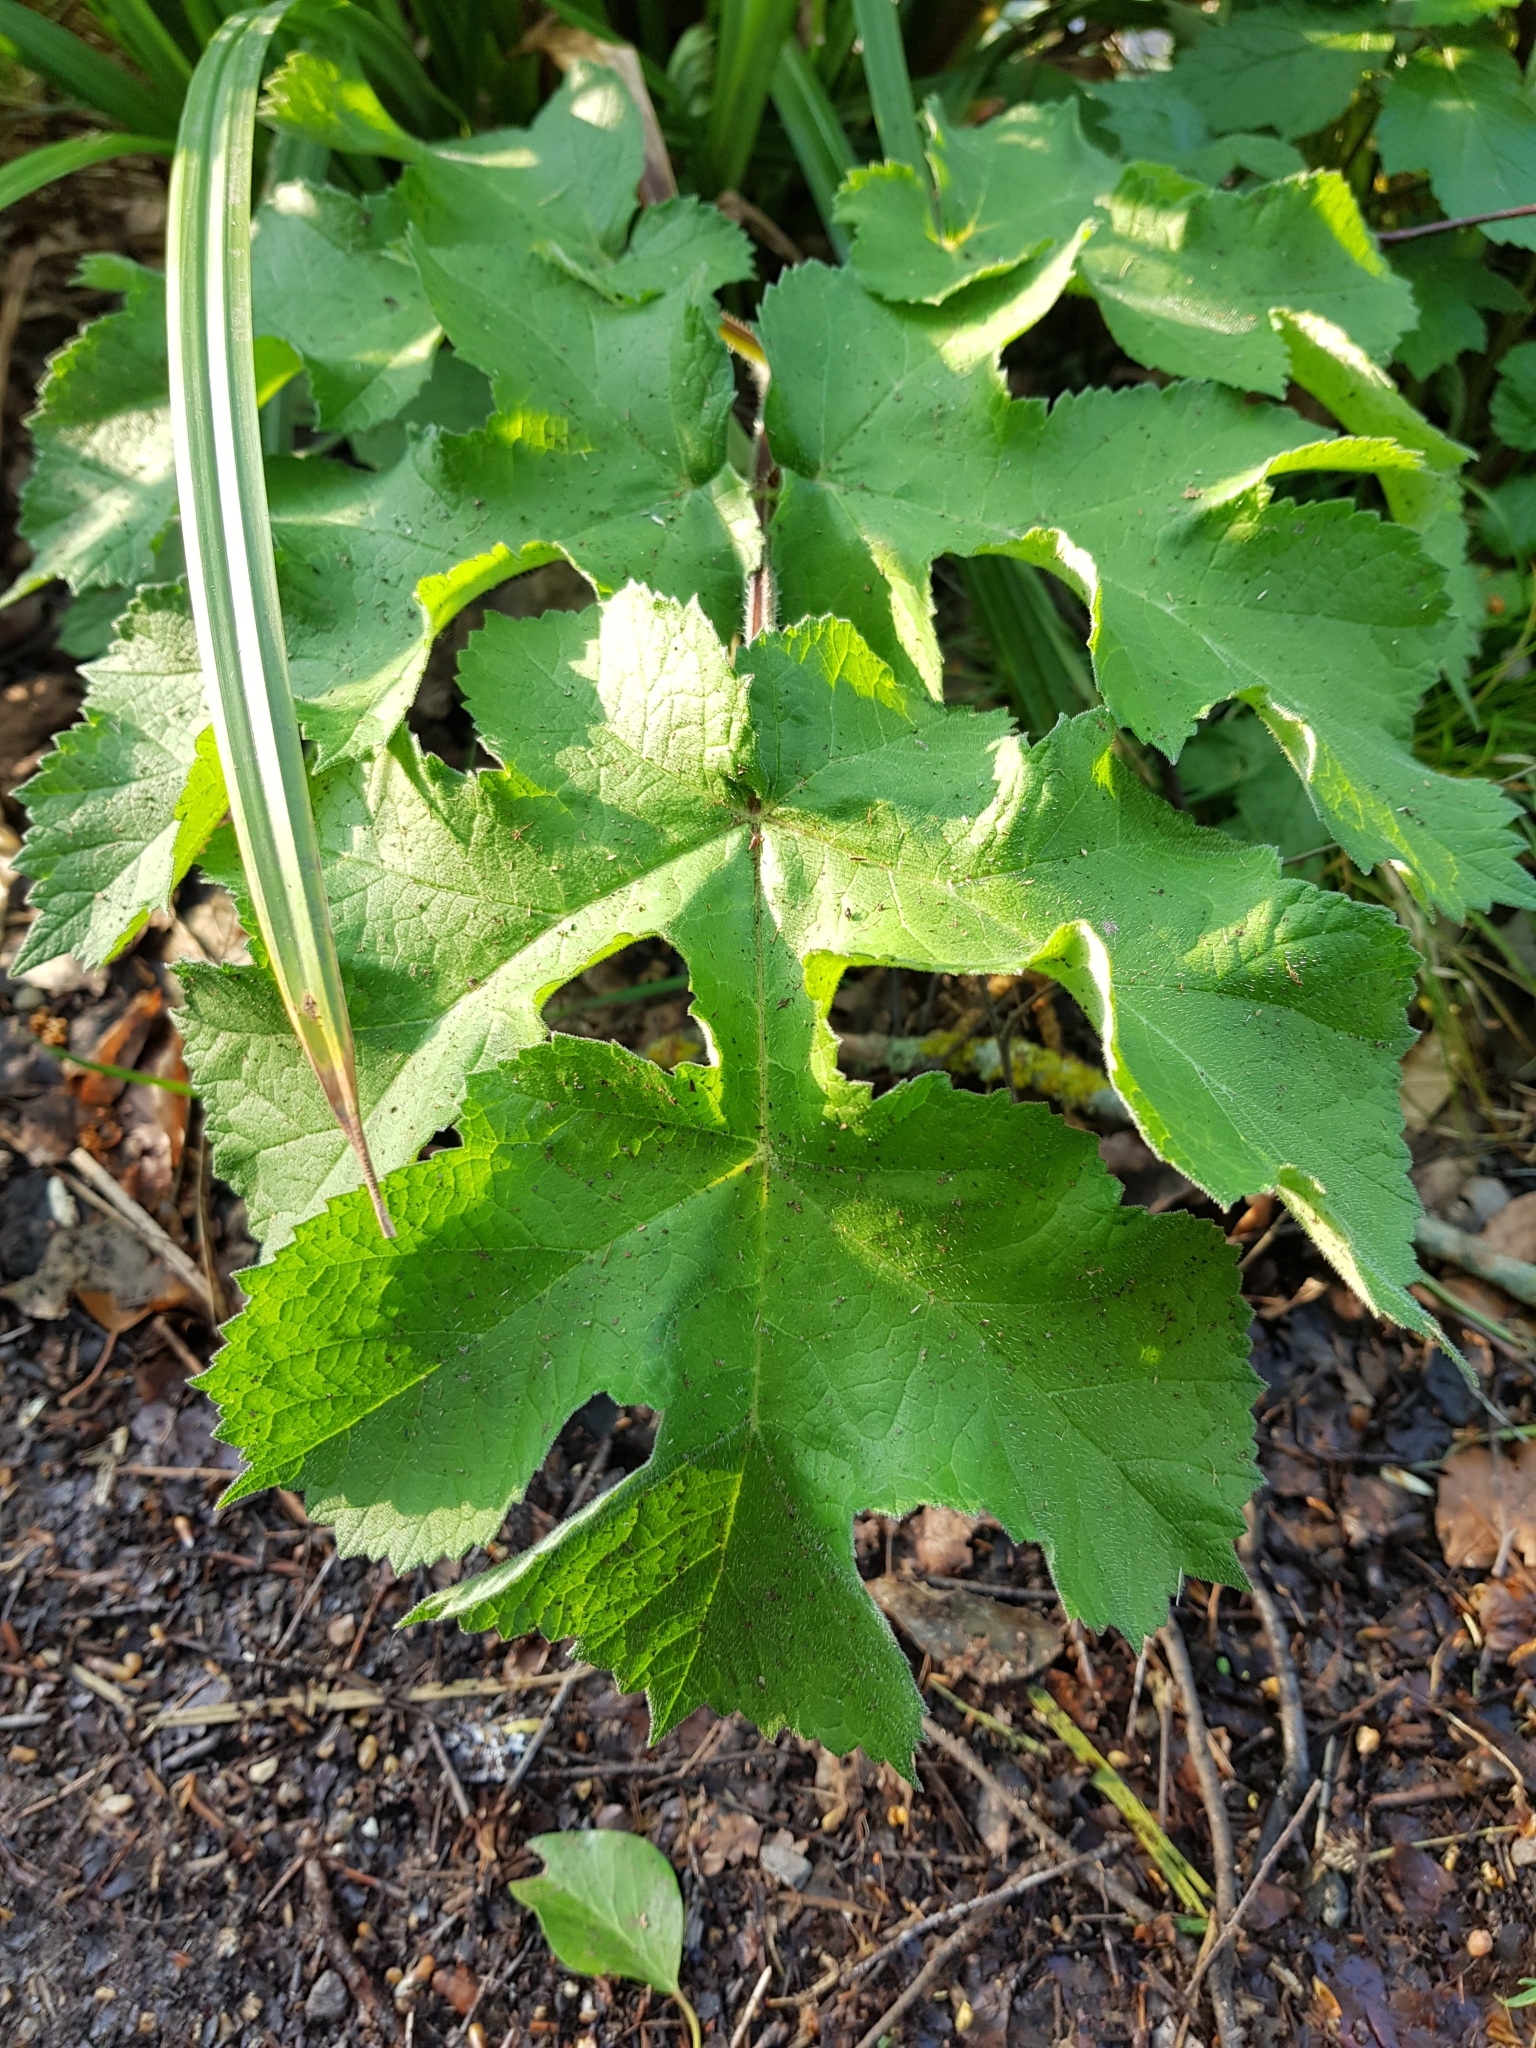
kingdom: Plantae
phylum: Tracheophyta
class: Magnoliopsida
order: Apiales
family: Apiaceae
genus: Heracleum
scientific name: Heracleum sphondylium
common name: Hogweed
